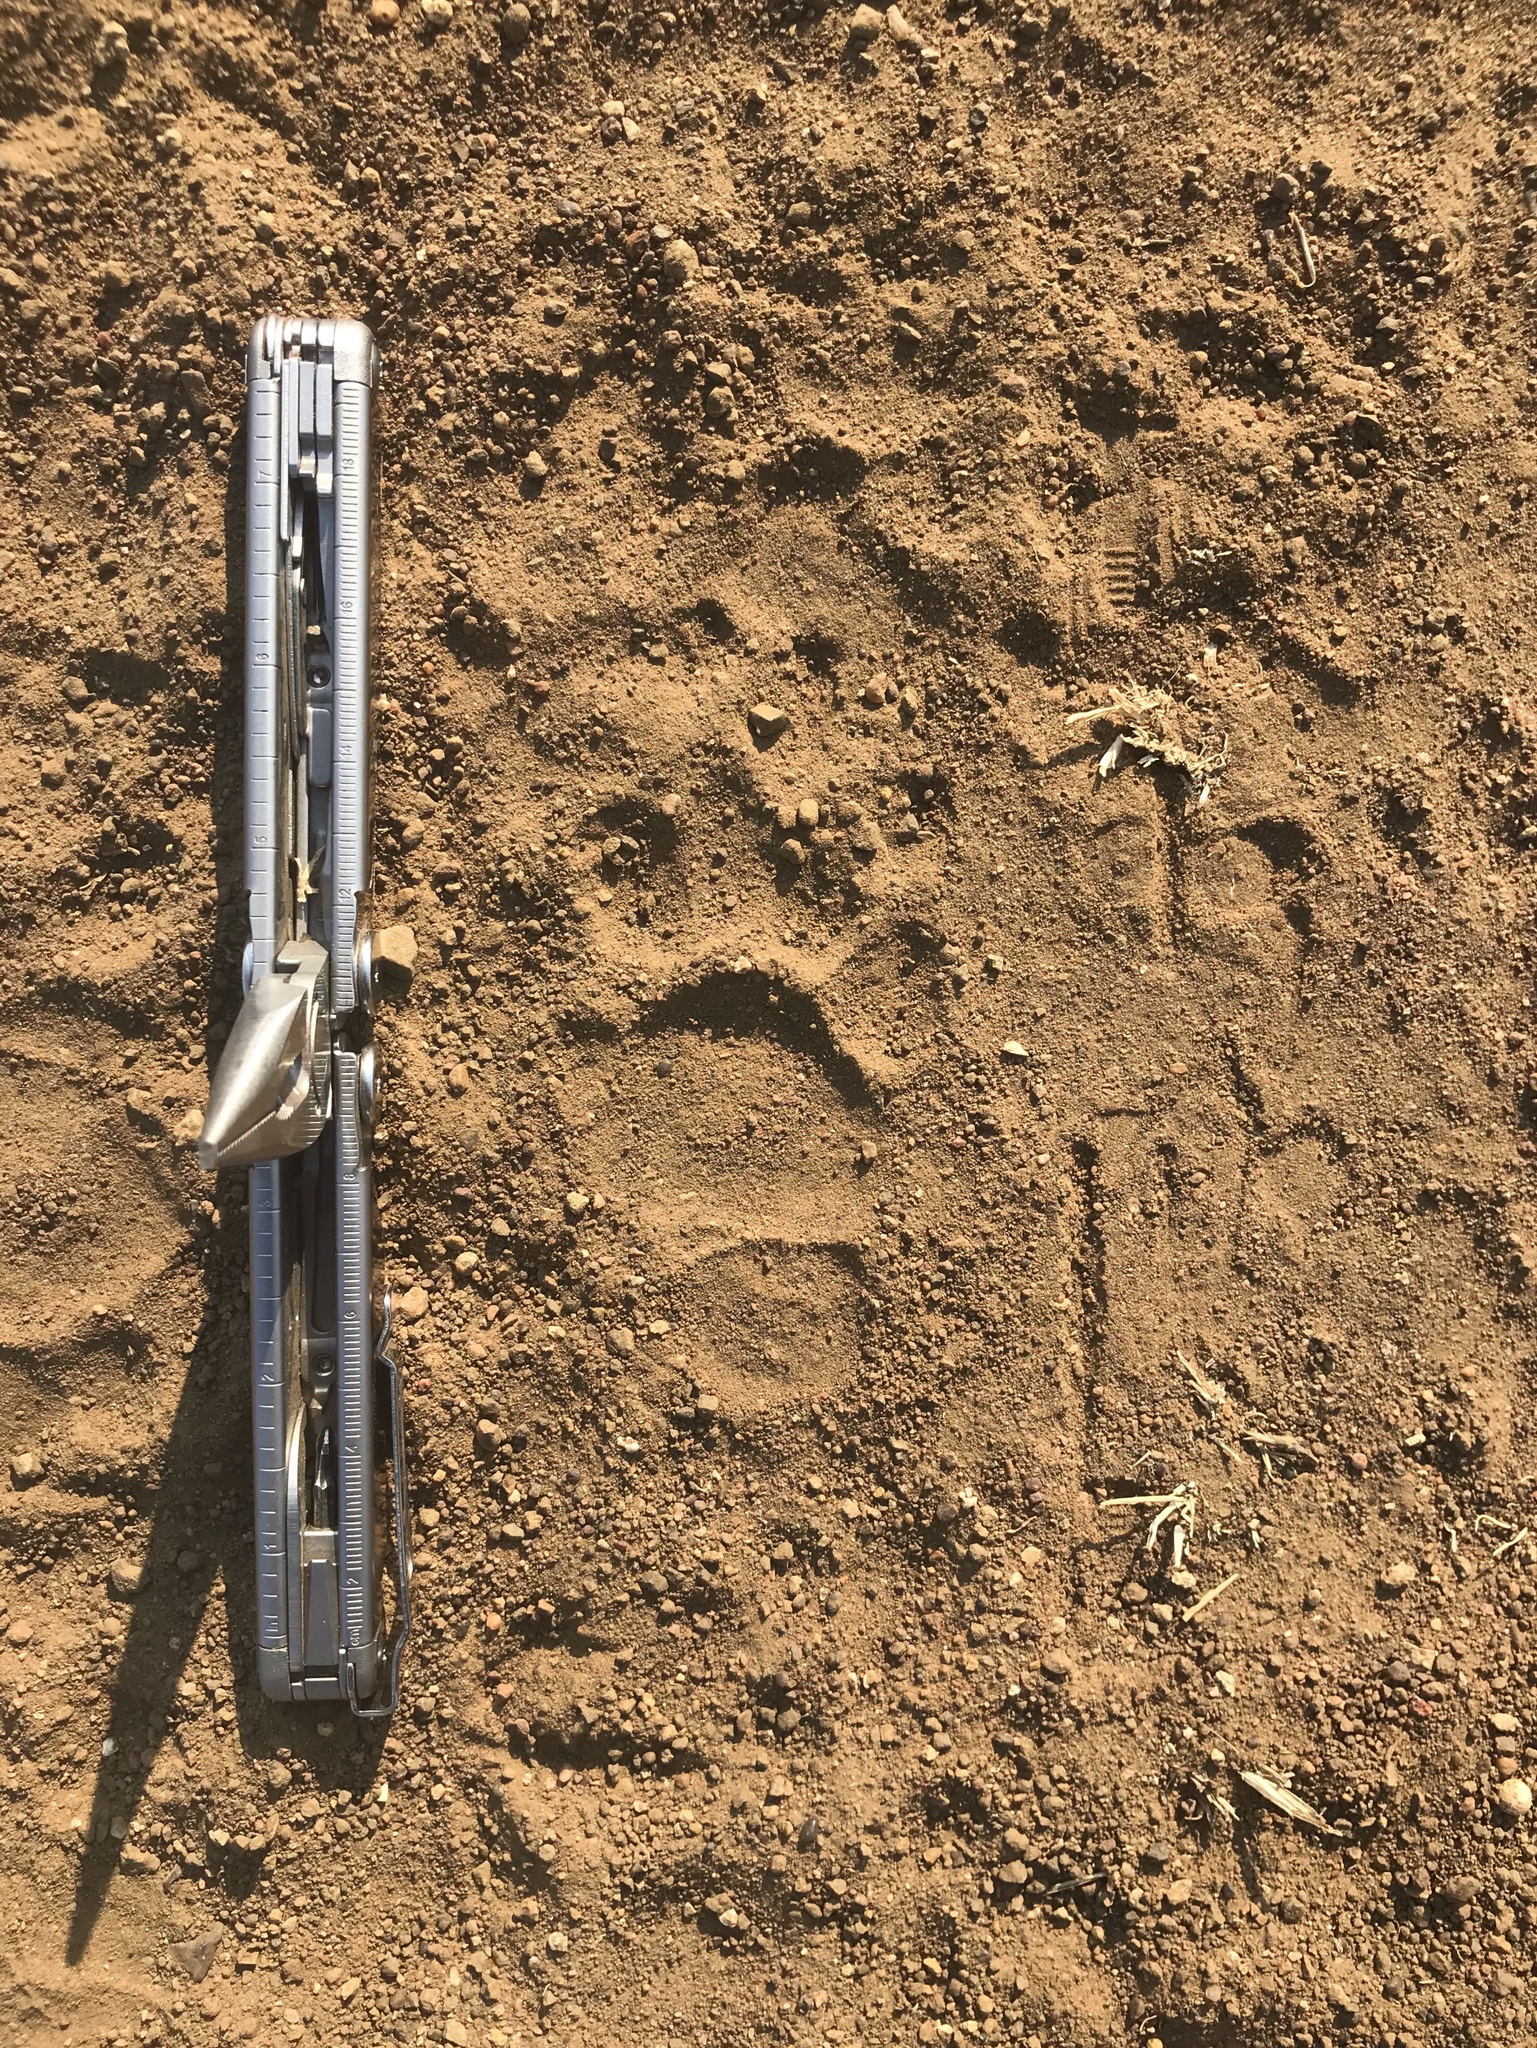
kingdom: Animalia
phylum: Chordata
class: Mammalia
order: Carnivora
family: Mustelidae
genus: Mellivora
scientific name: Mellivora capensis
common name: Honey badger
